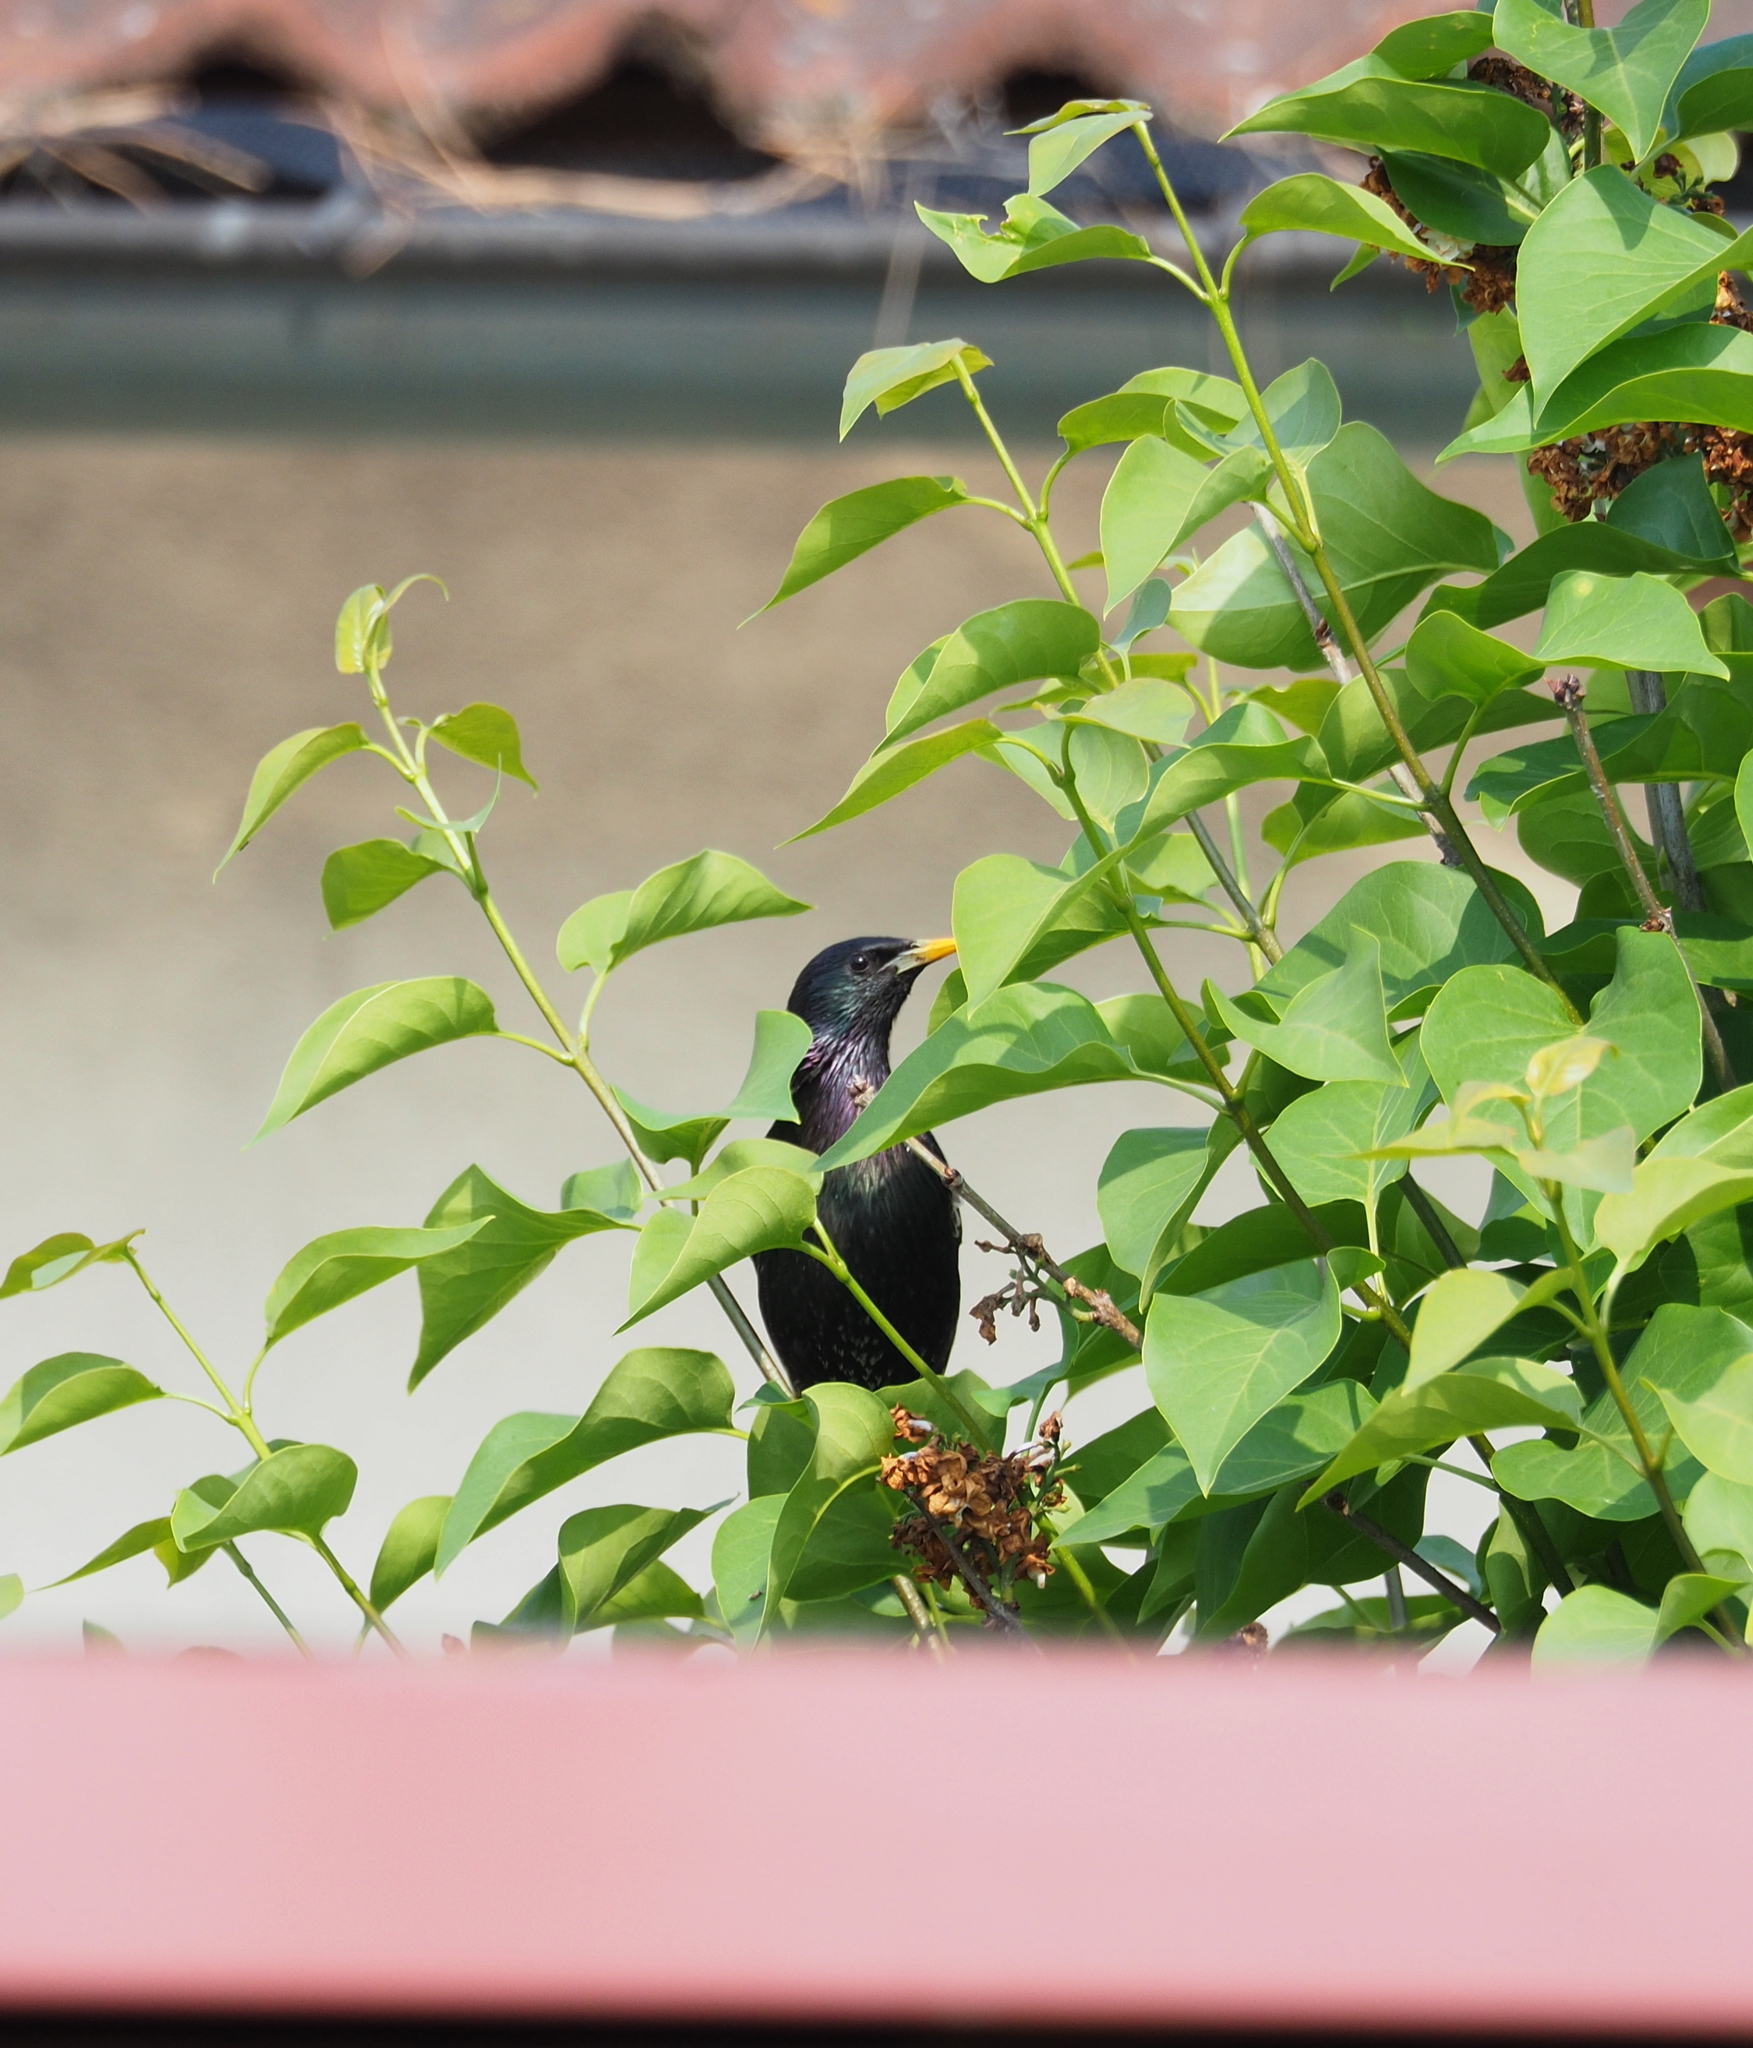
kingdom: Animalia
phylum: Chordata
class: Aves
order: Passeriformes
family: Sturnidae
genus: Sturnus
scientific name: Sturnus vulgaris
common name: Common starling
